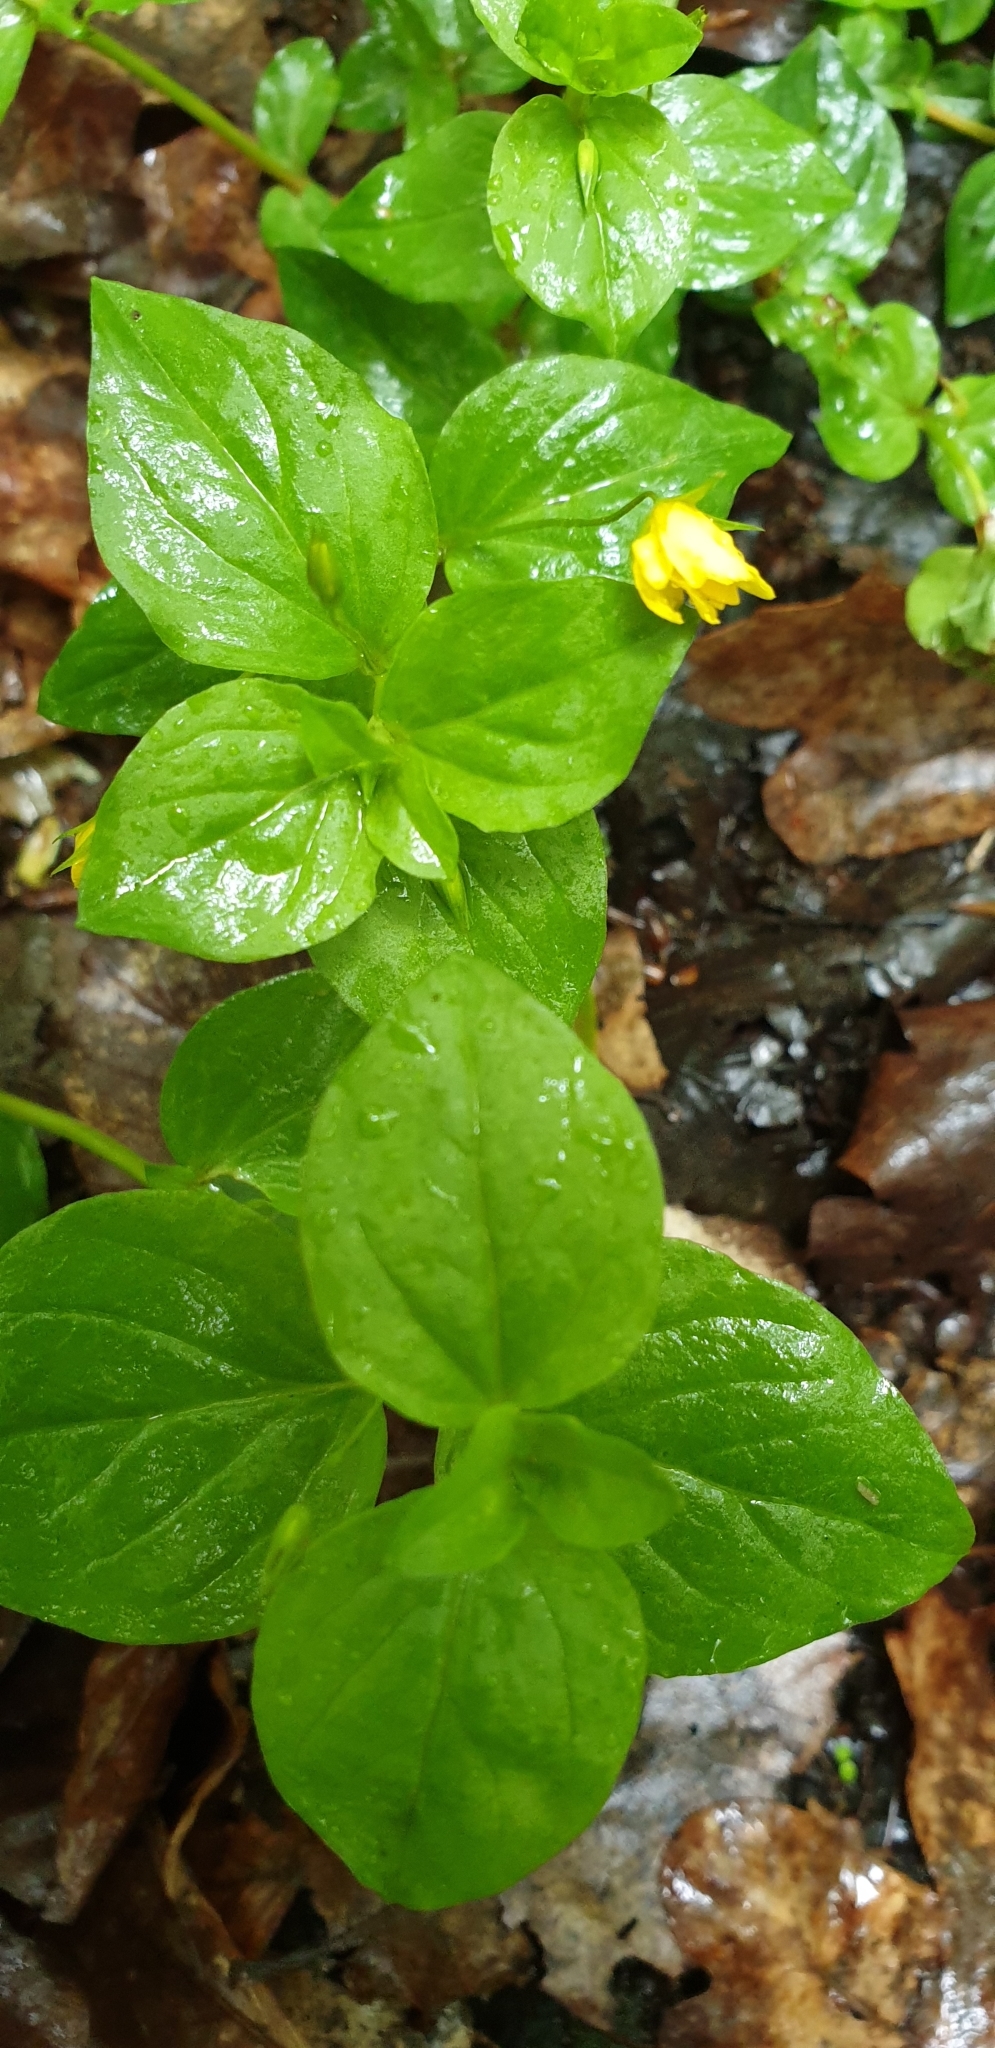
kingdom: Plantae
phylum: Tracheophyta
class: Magnoliopsida
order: Ericales
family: Primulaceae
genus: Lysimachia
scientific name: Lysimachia nemorum
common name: Yellow pimpernel
